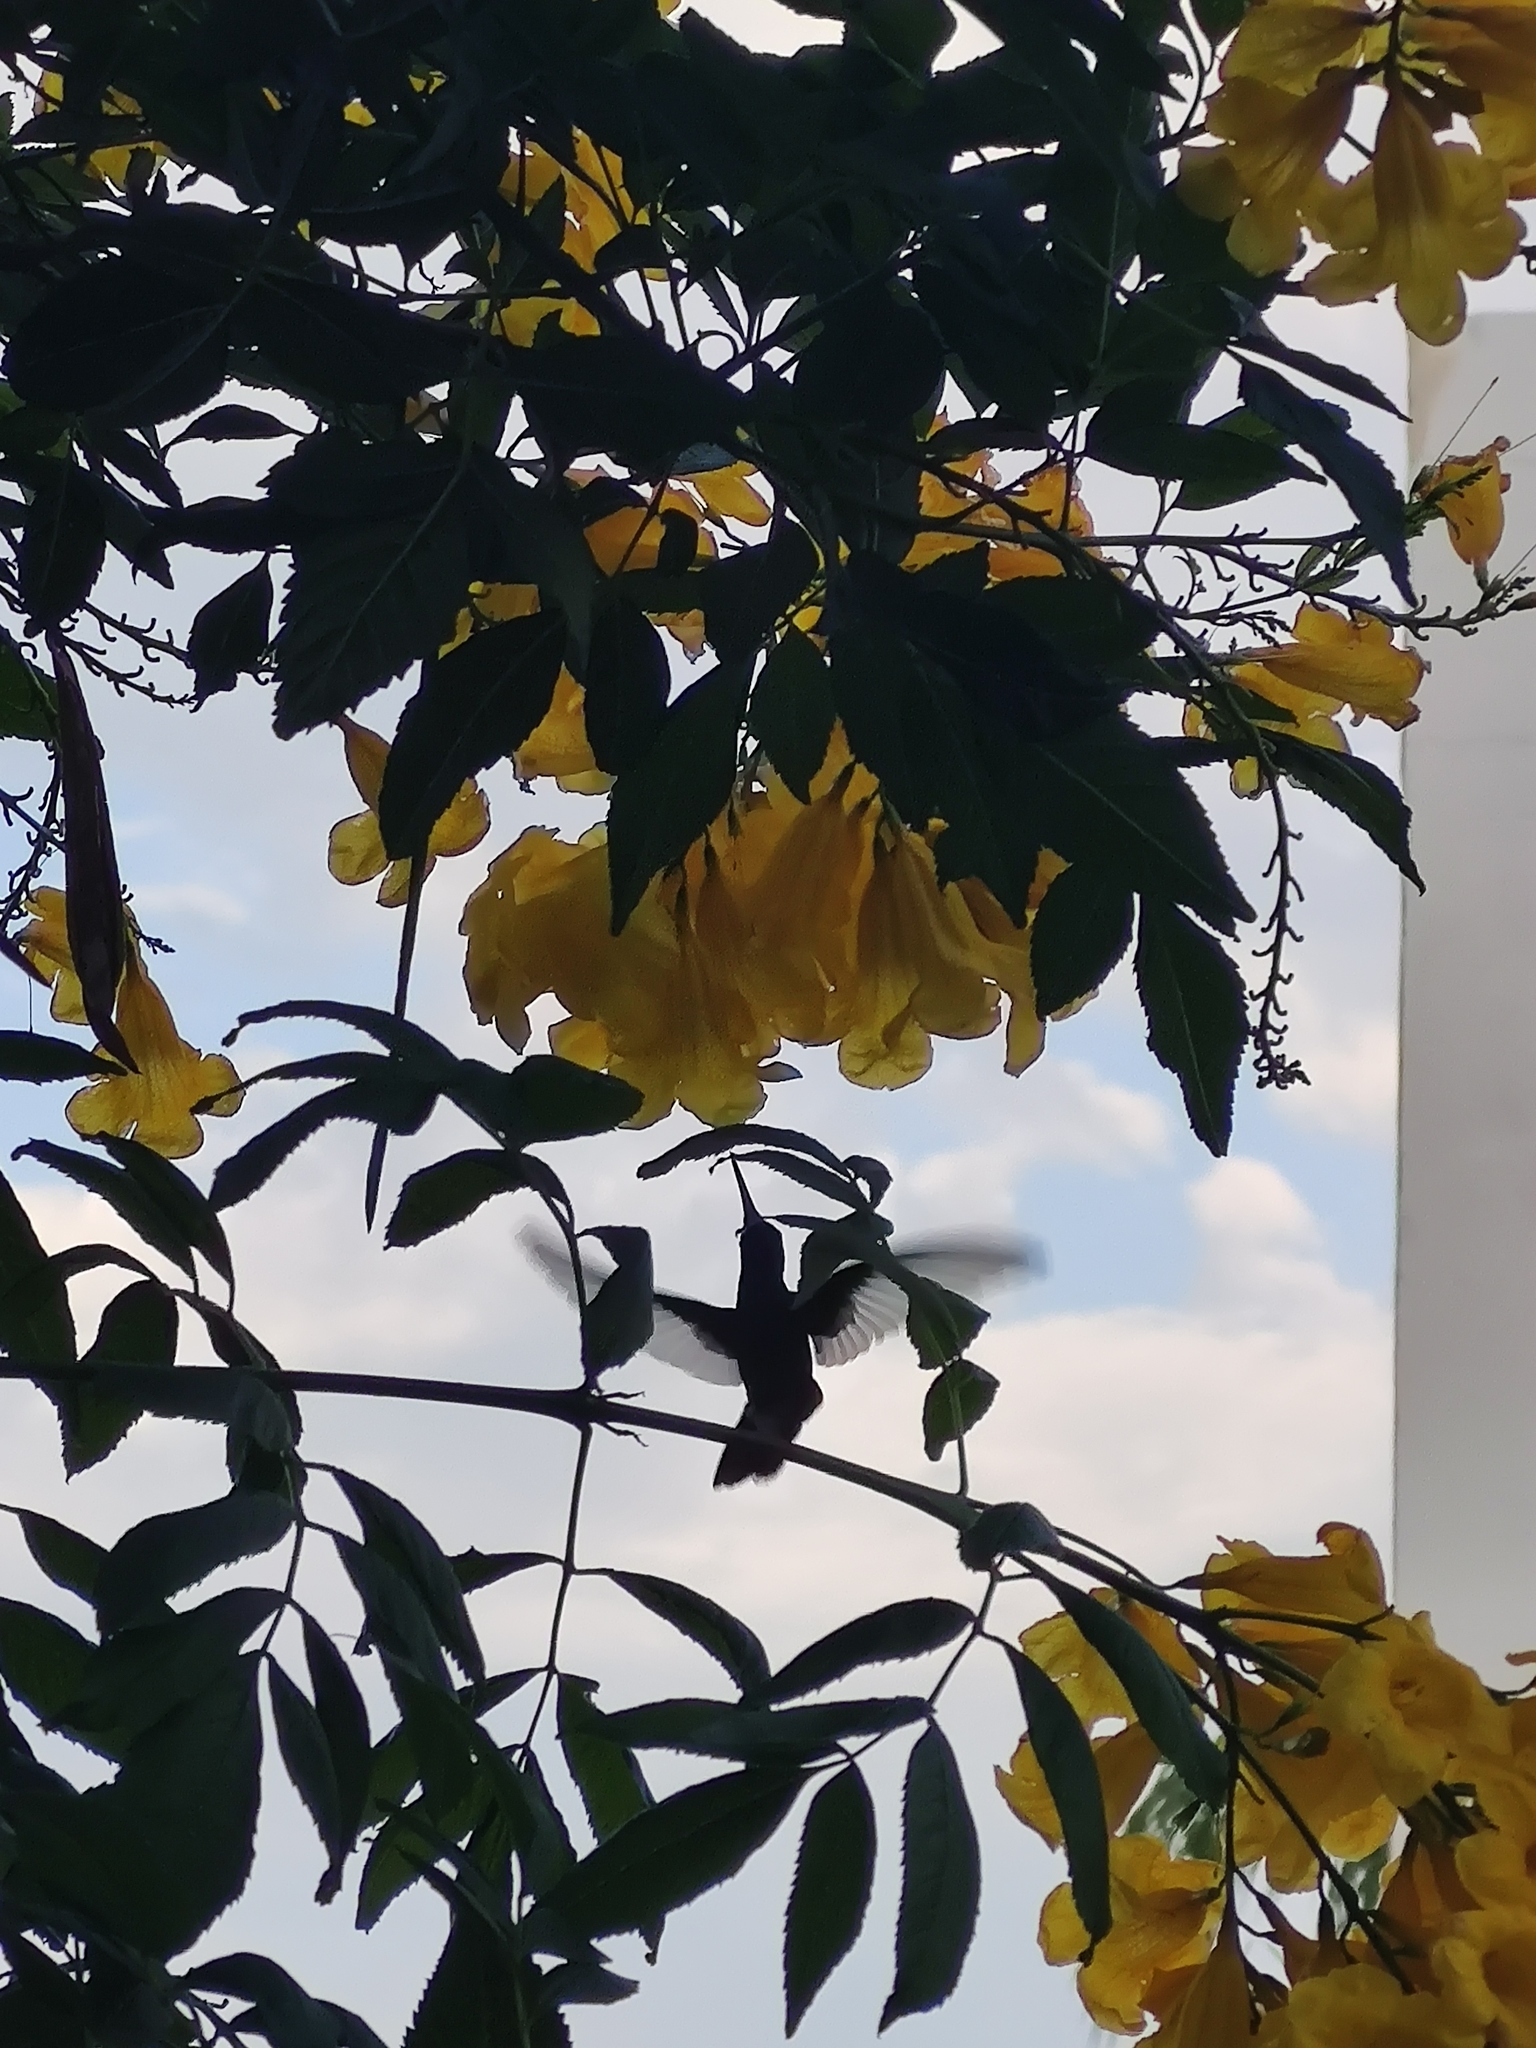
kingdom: Plantae
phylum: Tracheophyta
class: Magnoliopsida
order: Lamiales
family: Bignoniaceae
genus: Tecoma
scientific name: Tecoma stans
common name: Yellow trumpetbush
